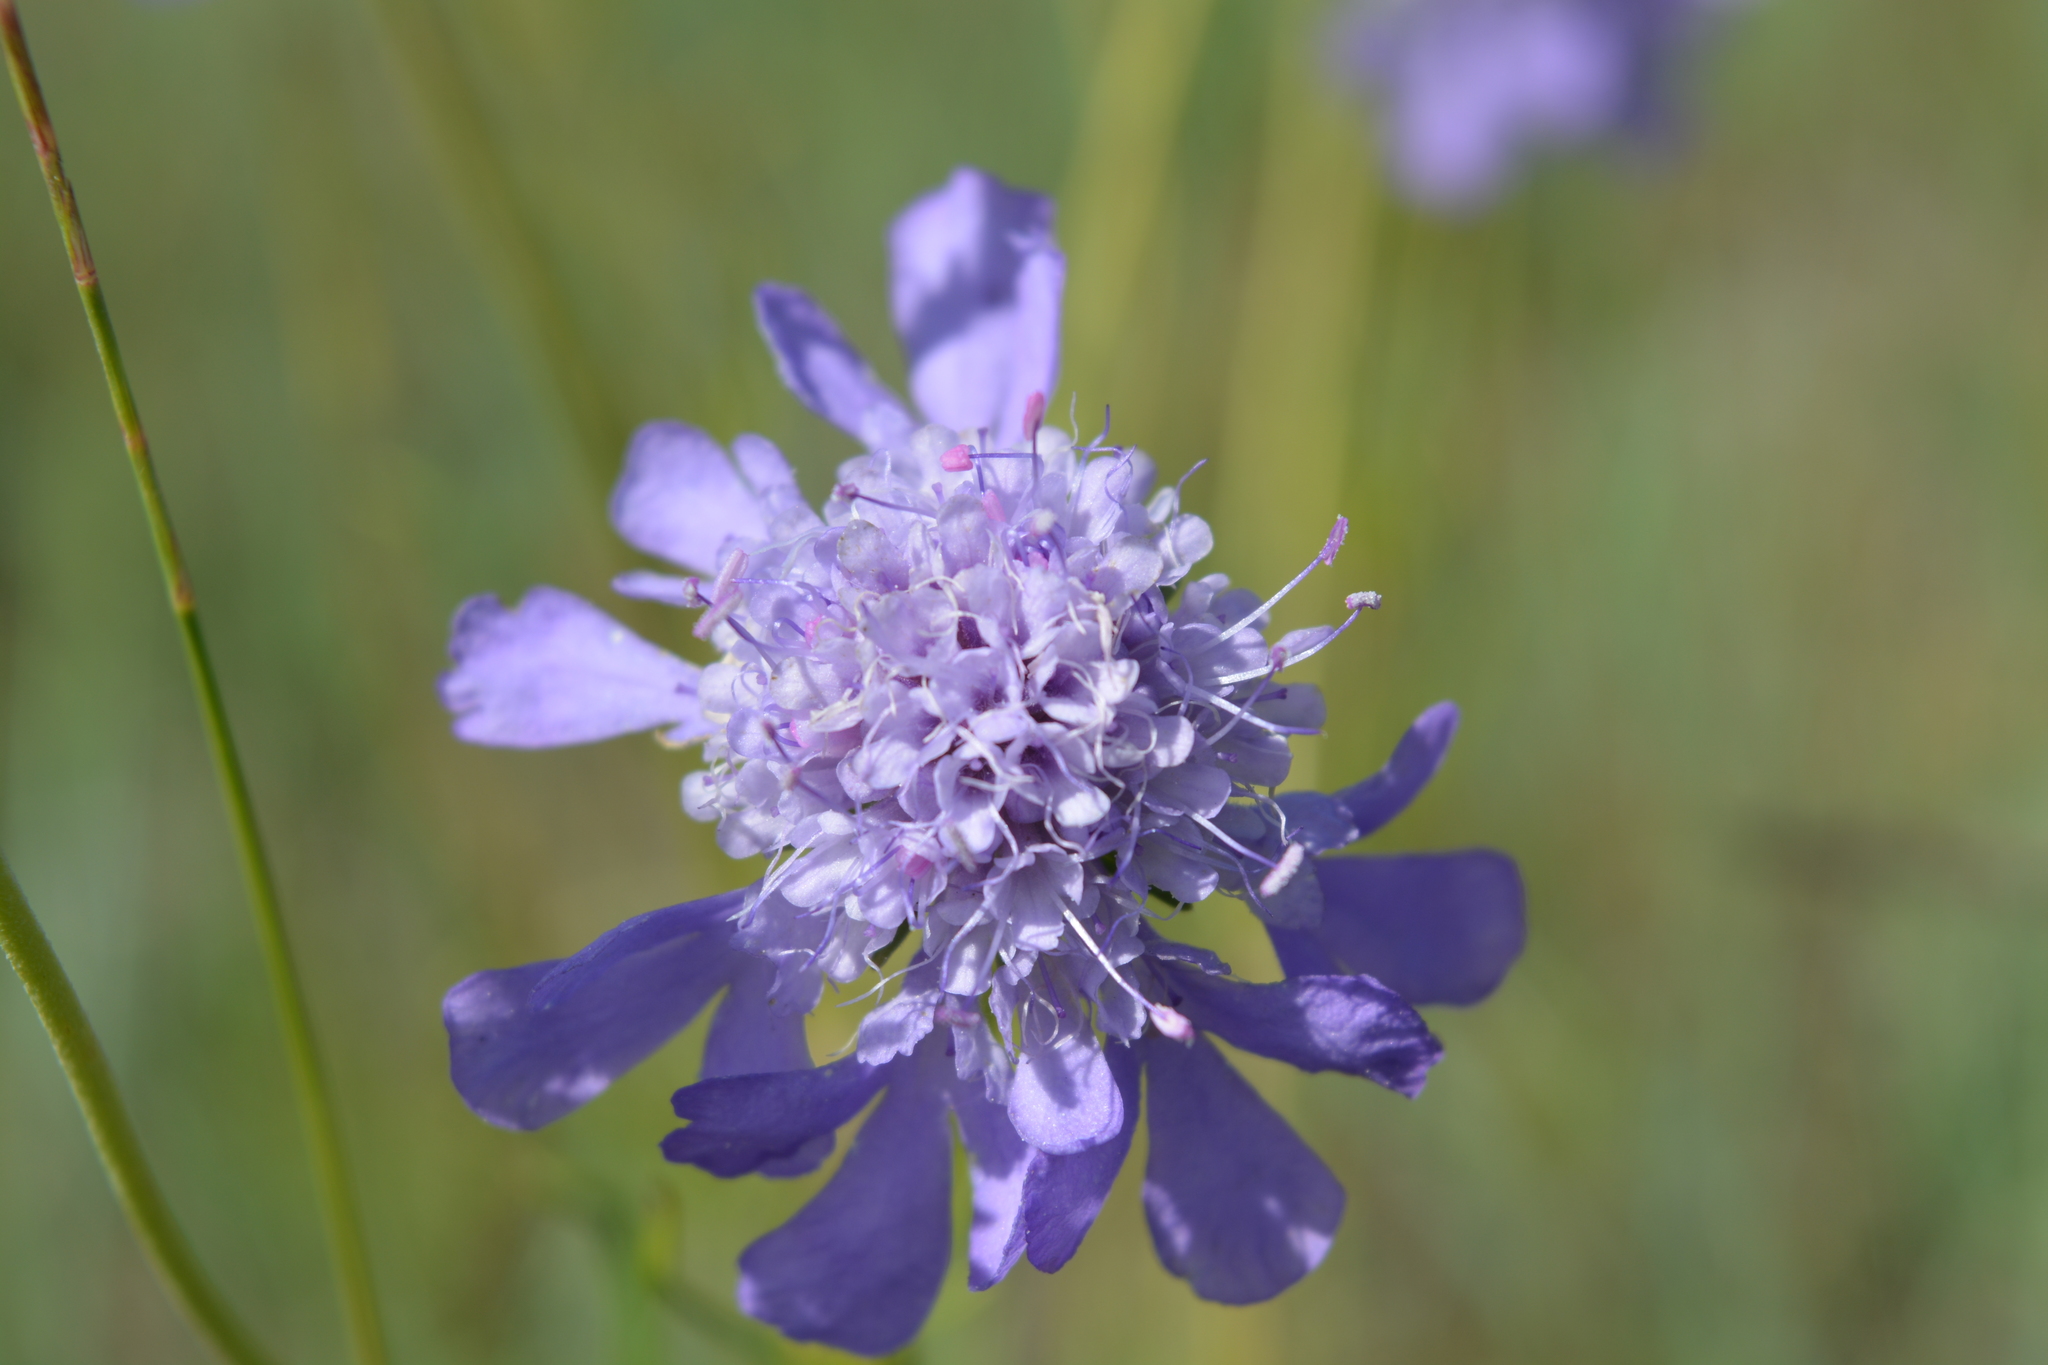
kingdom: Plantae
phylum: Tracheophyta
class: Magnoliopsida
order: Dipsacales
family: Caprifoliaceae
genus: Scabiosa
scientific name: Scabiosa comosa
